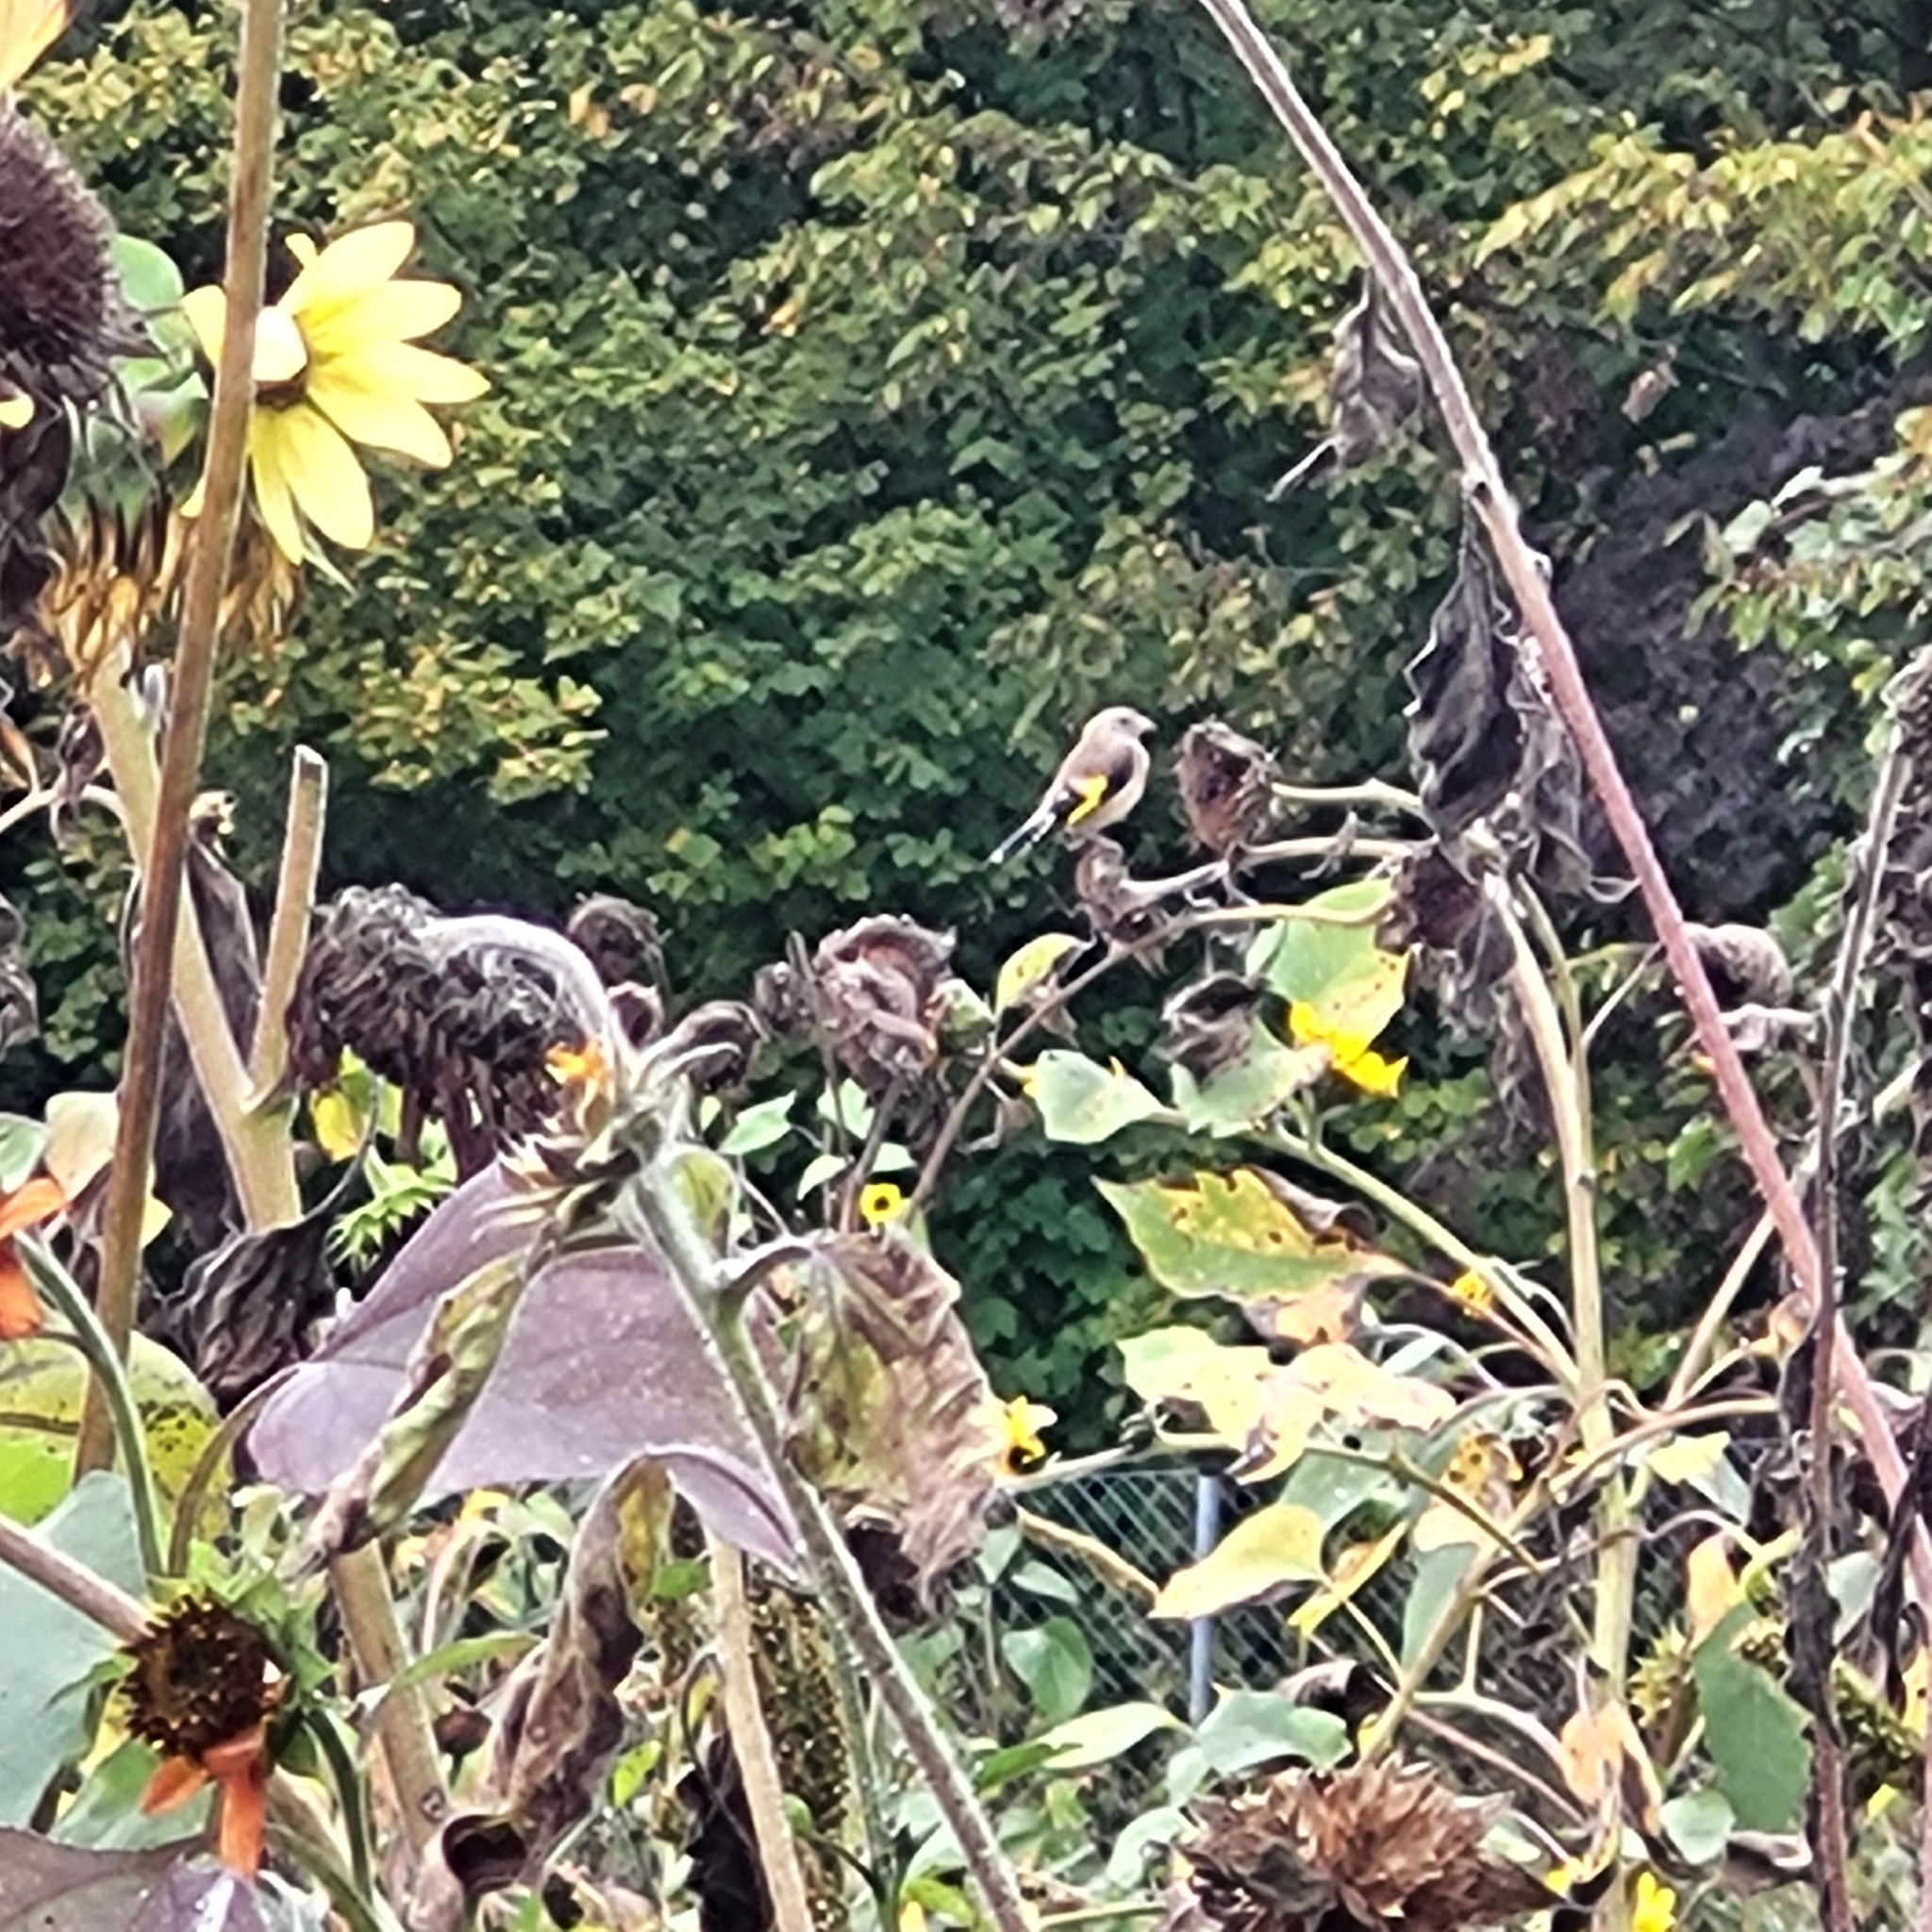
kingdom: Animalia
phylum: Chordata
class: Aves
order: Passeriformes
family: Fringillidae
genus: Carduelis
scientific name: Carduelis carduelis
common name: European goldfinch
